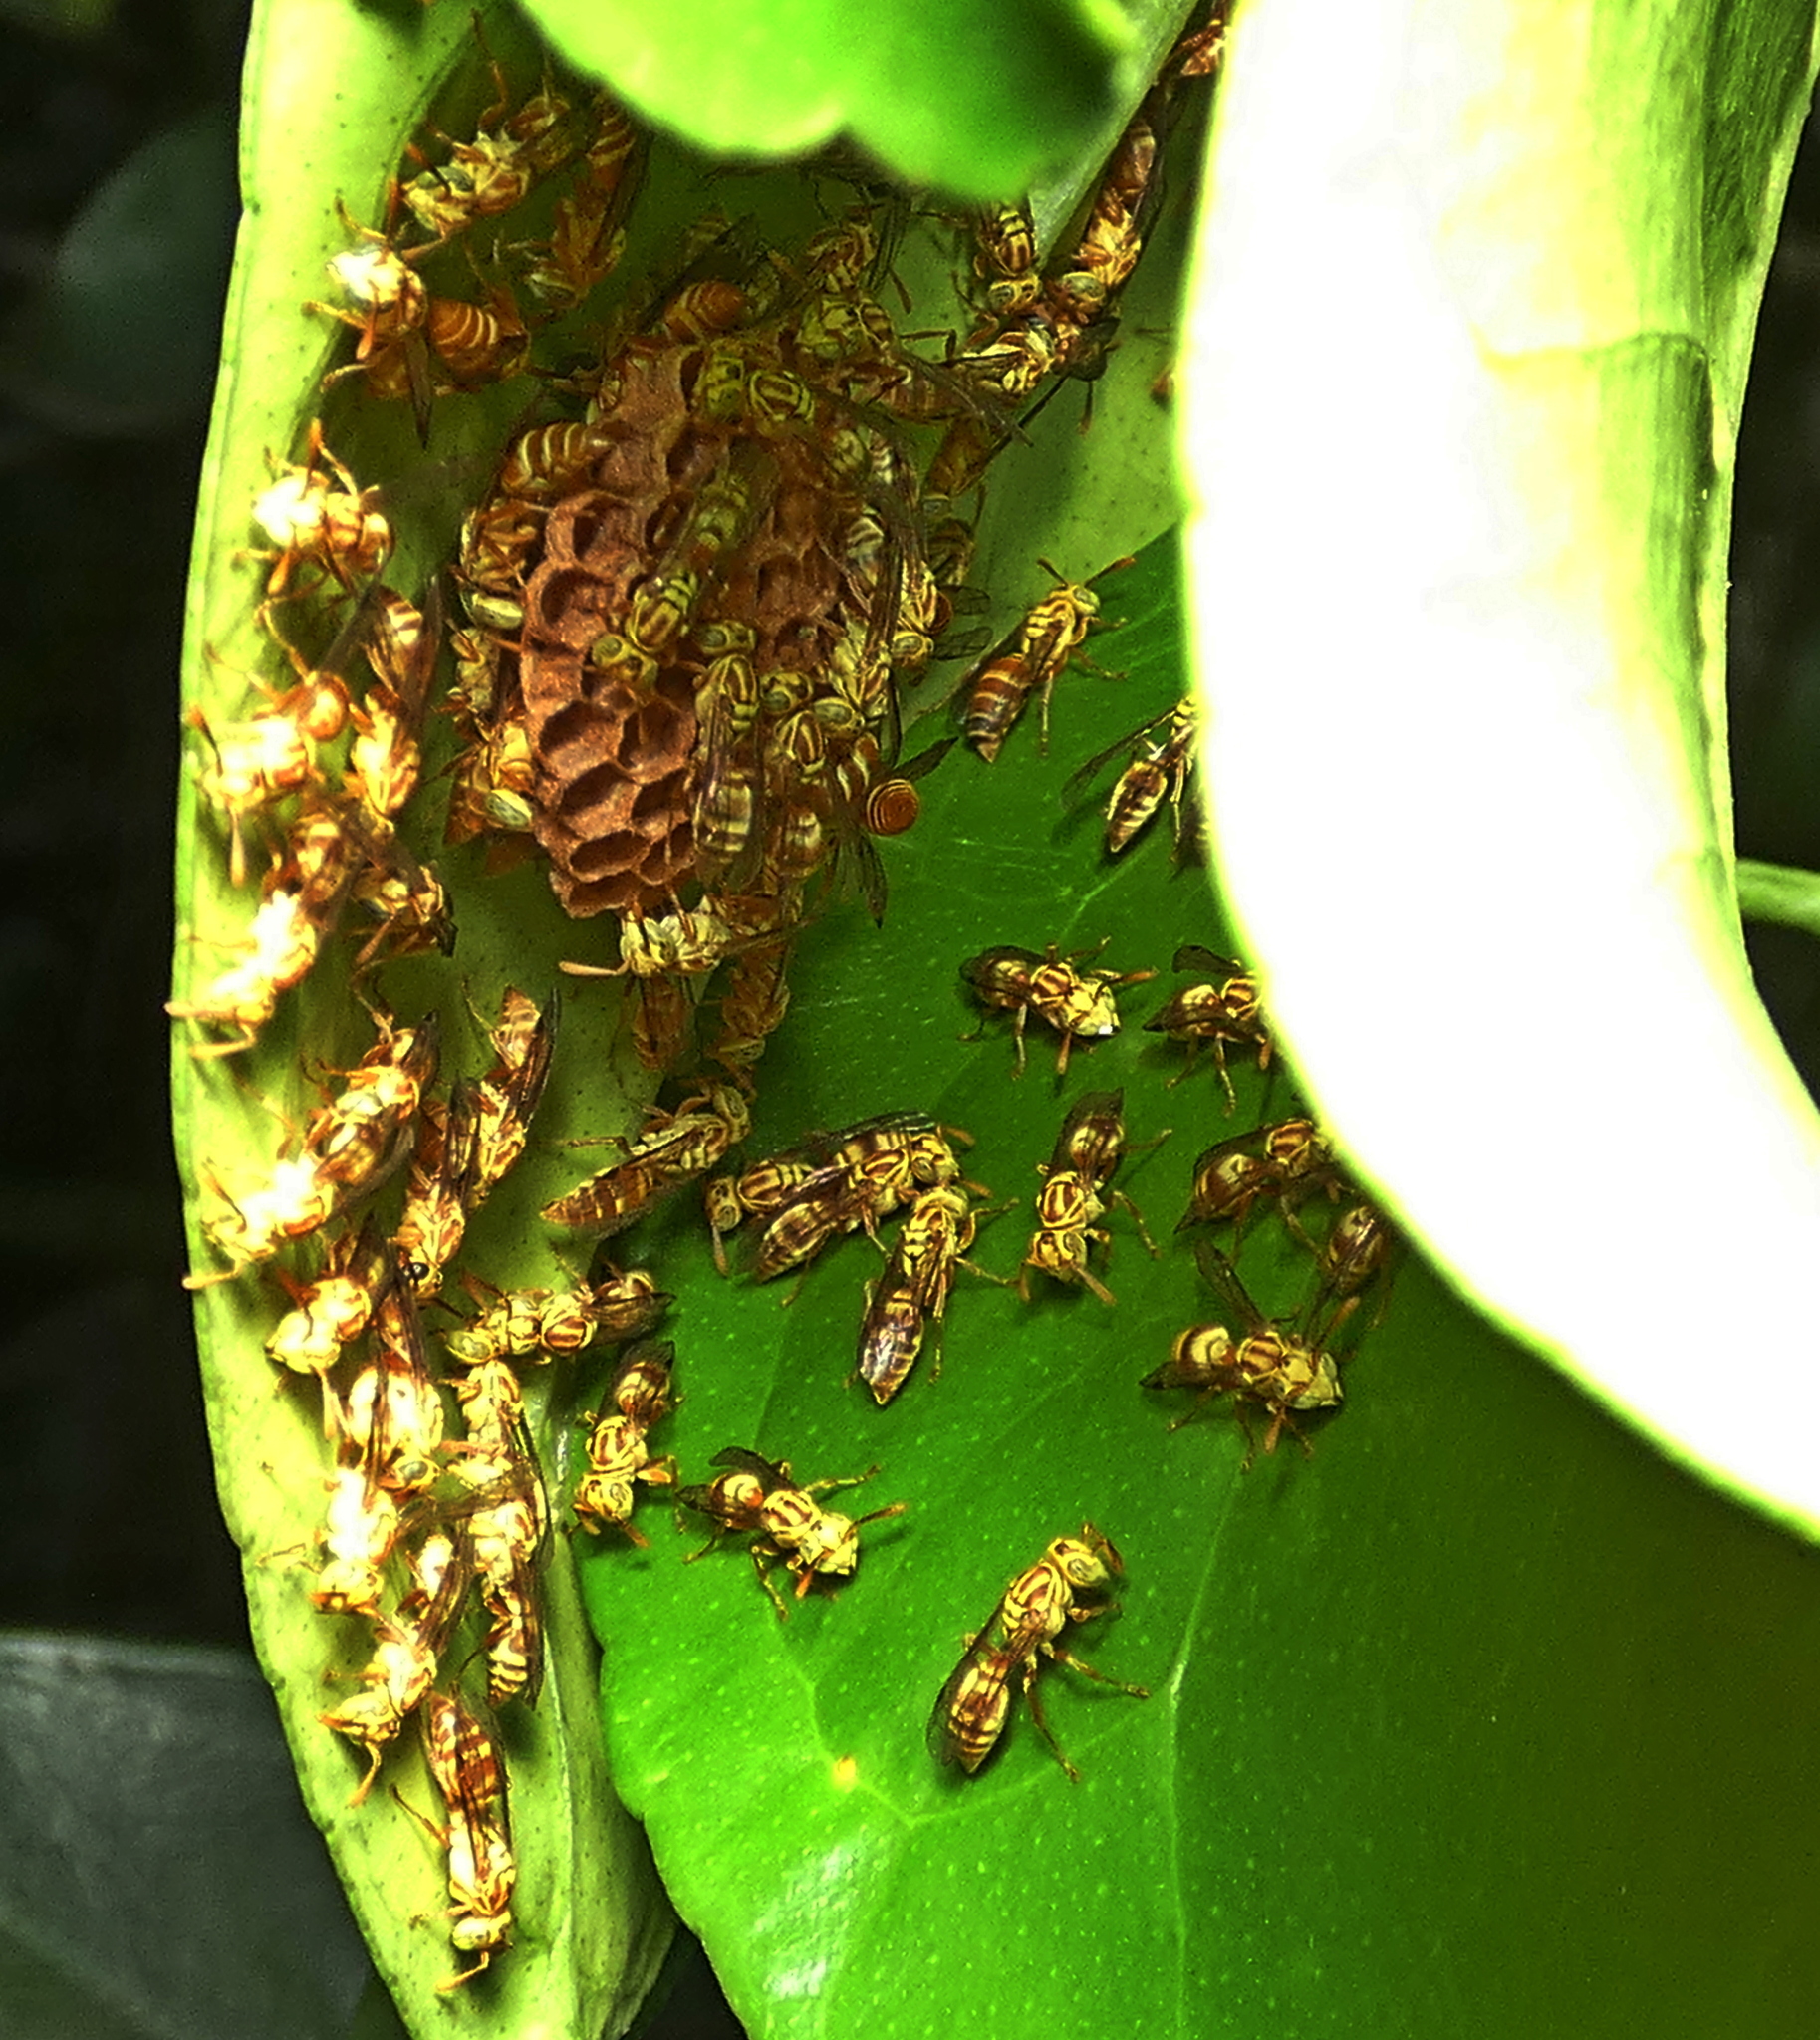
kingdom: Animalia
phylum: Arthropoda
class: Insecta
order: Hymenoptera
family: Vespidae
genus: Protopolybia
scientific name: Protopolybia potiguara
